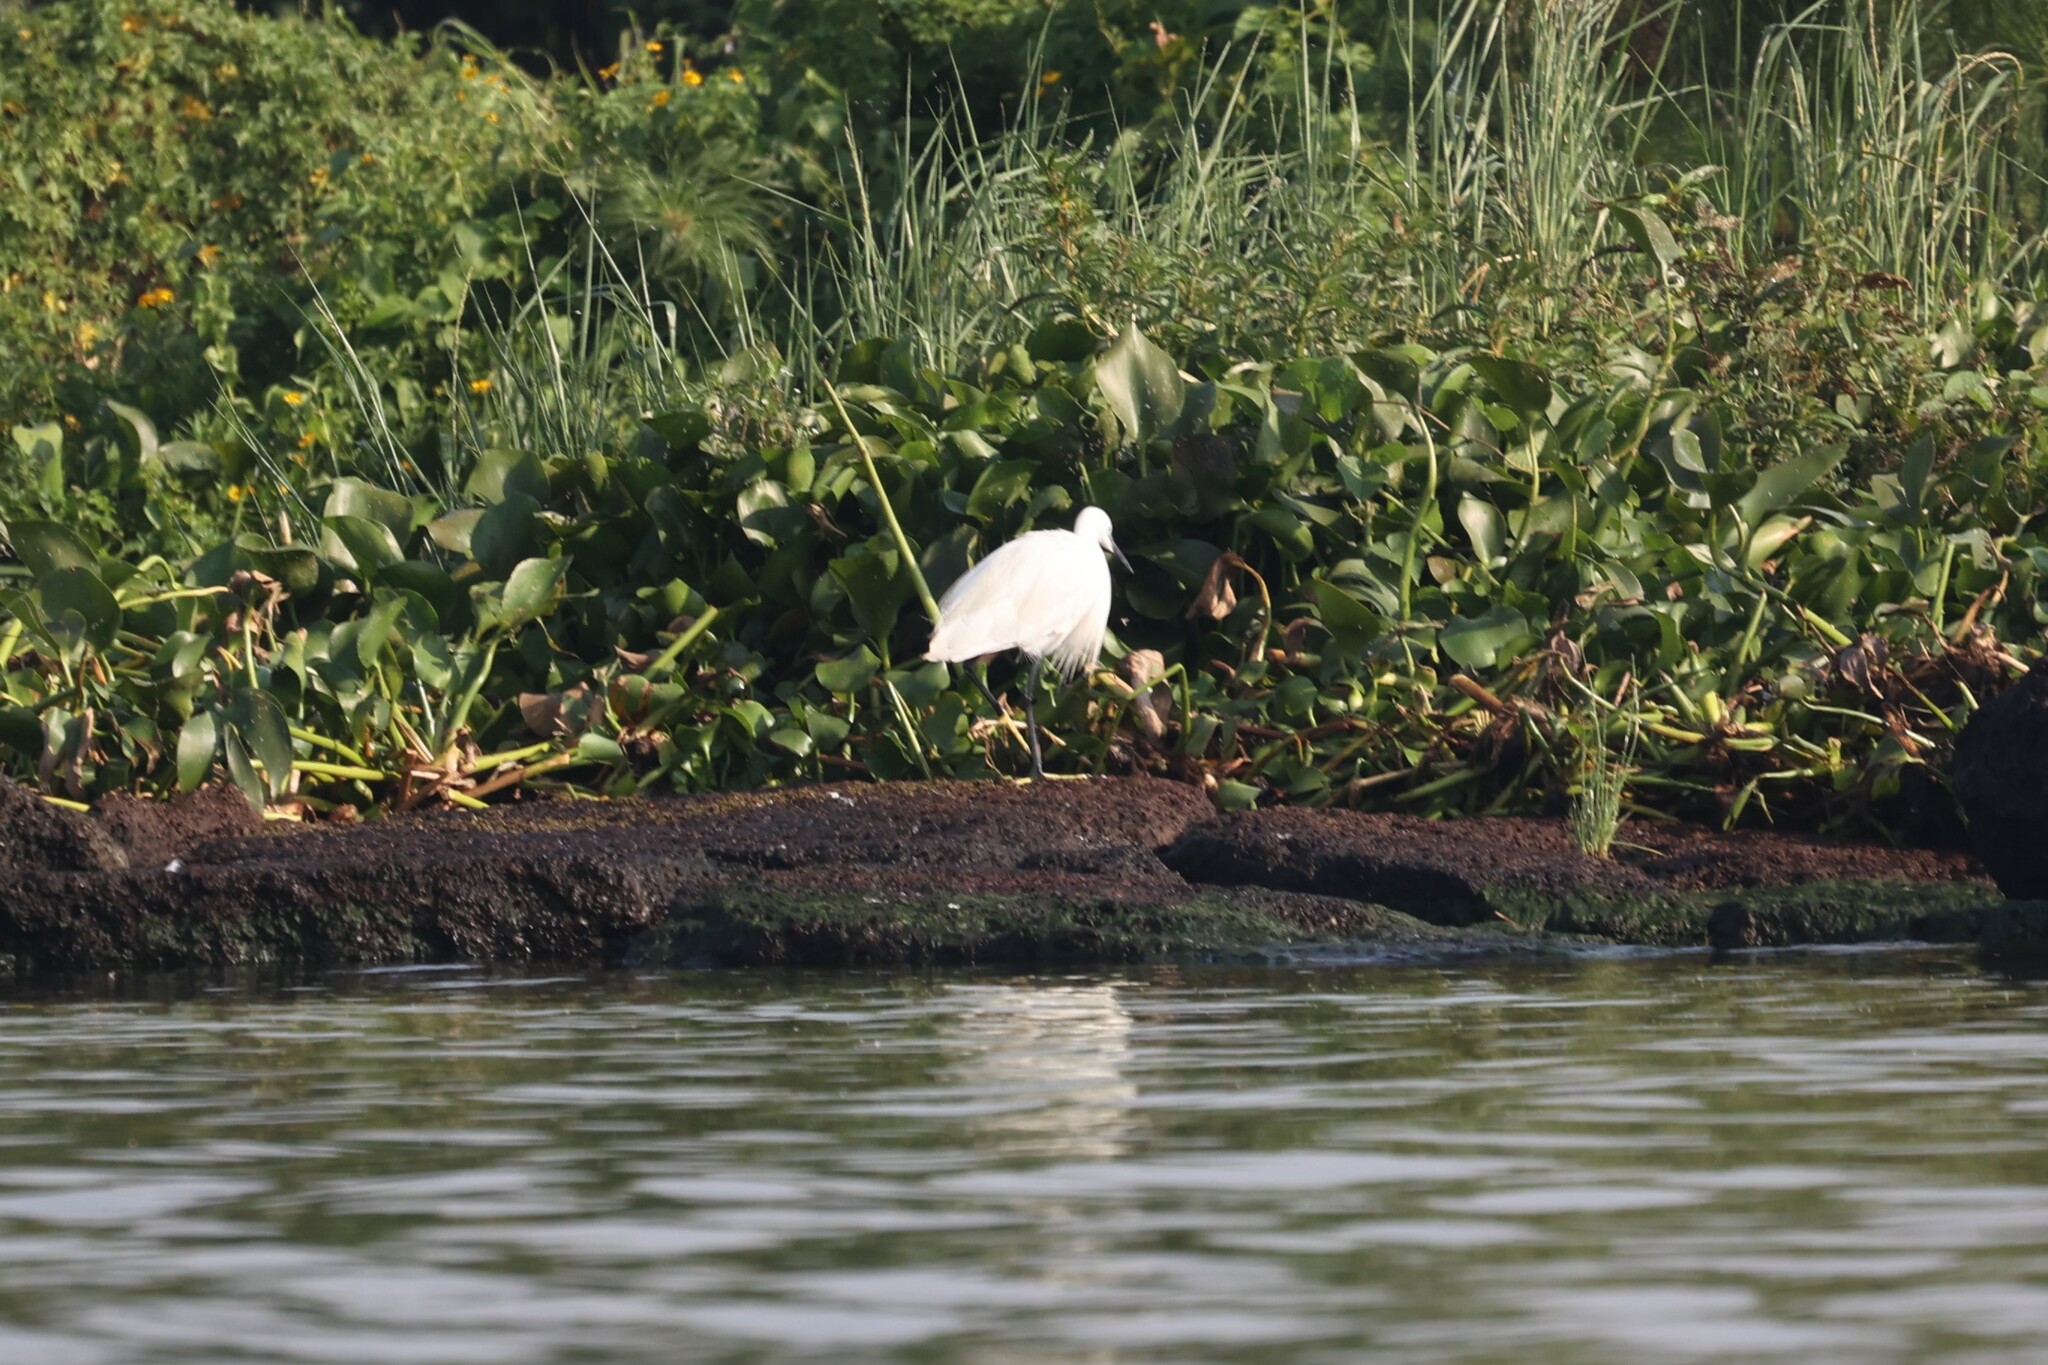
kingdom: Animalia
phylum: Chordata
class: Aves
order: Pelecaniformes
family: Ardeidae
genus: Egretta
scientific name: Egretta garzetta
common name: Little egret
